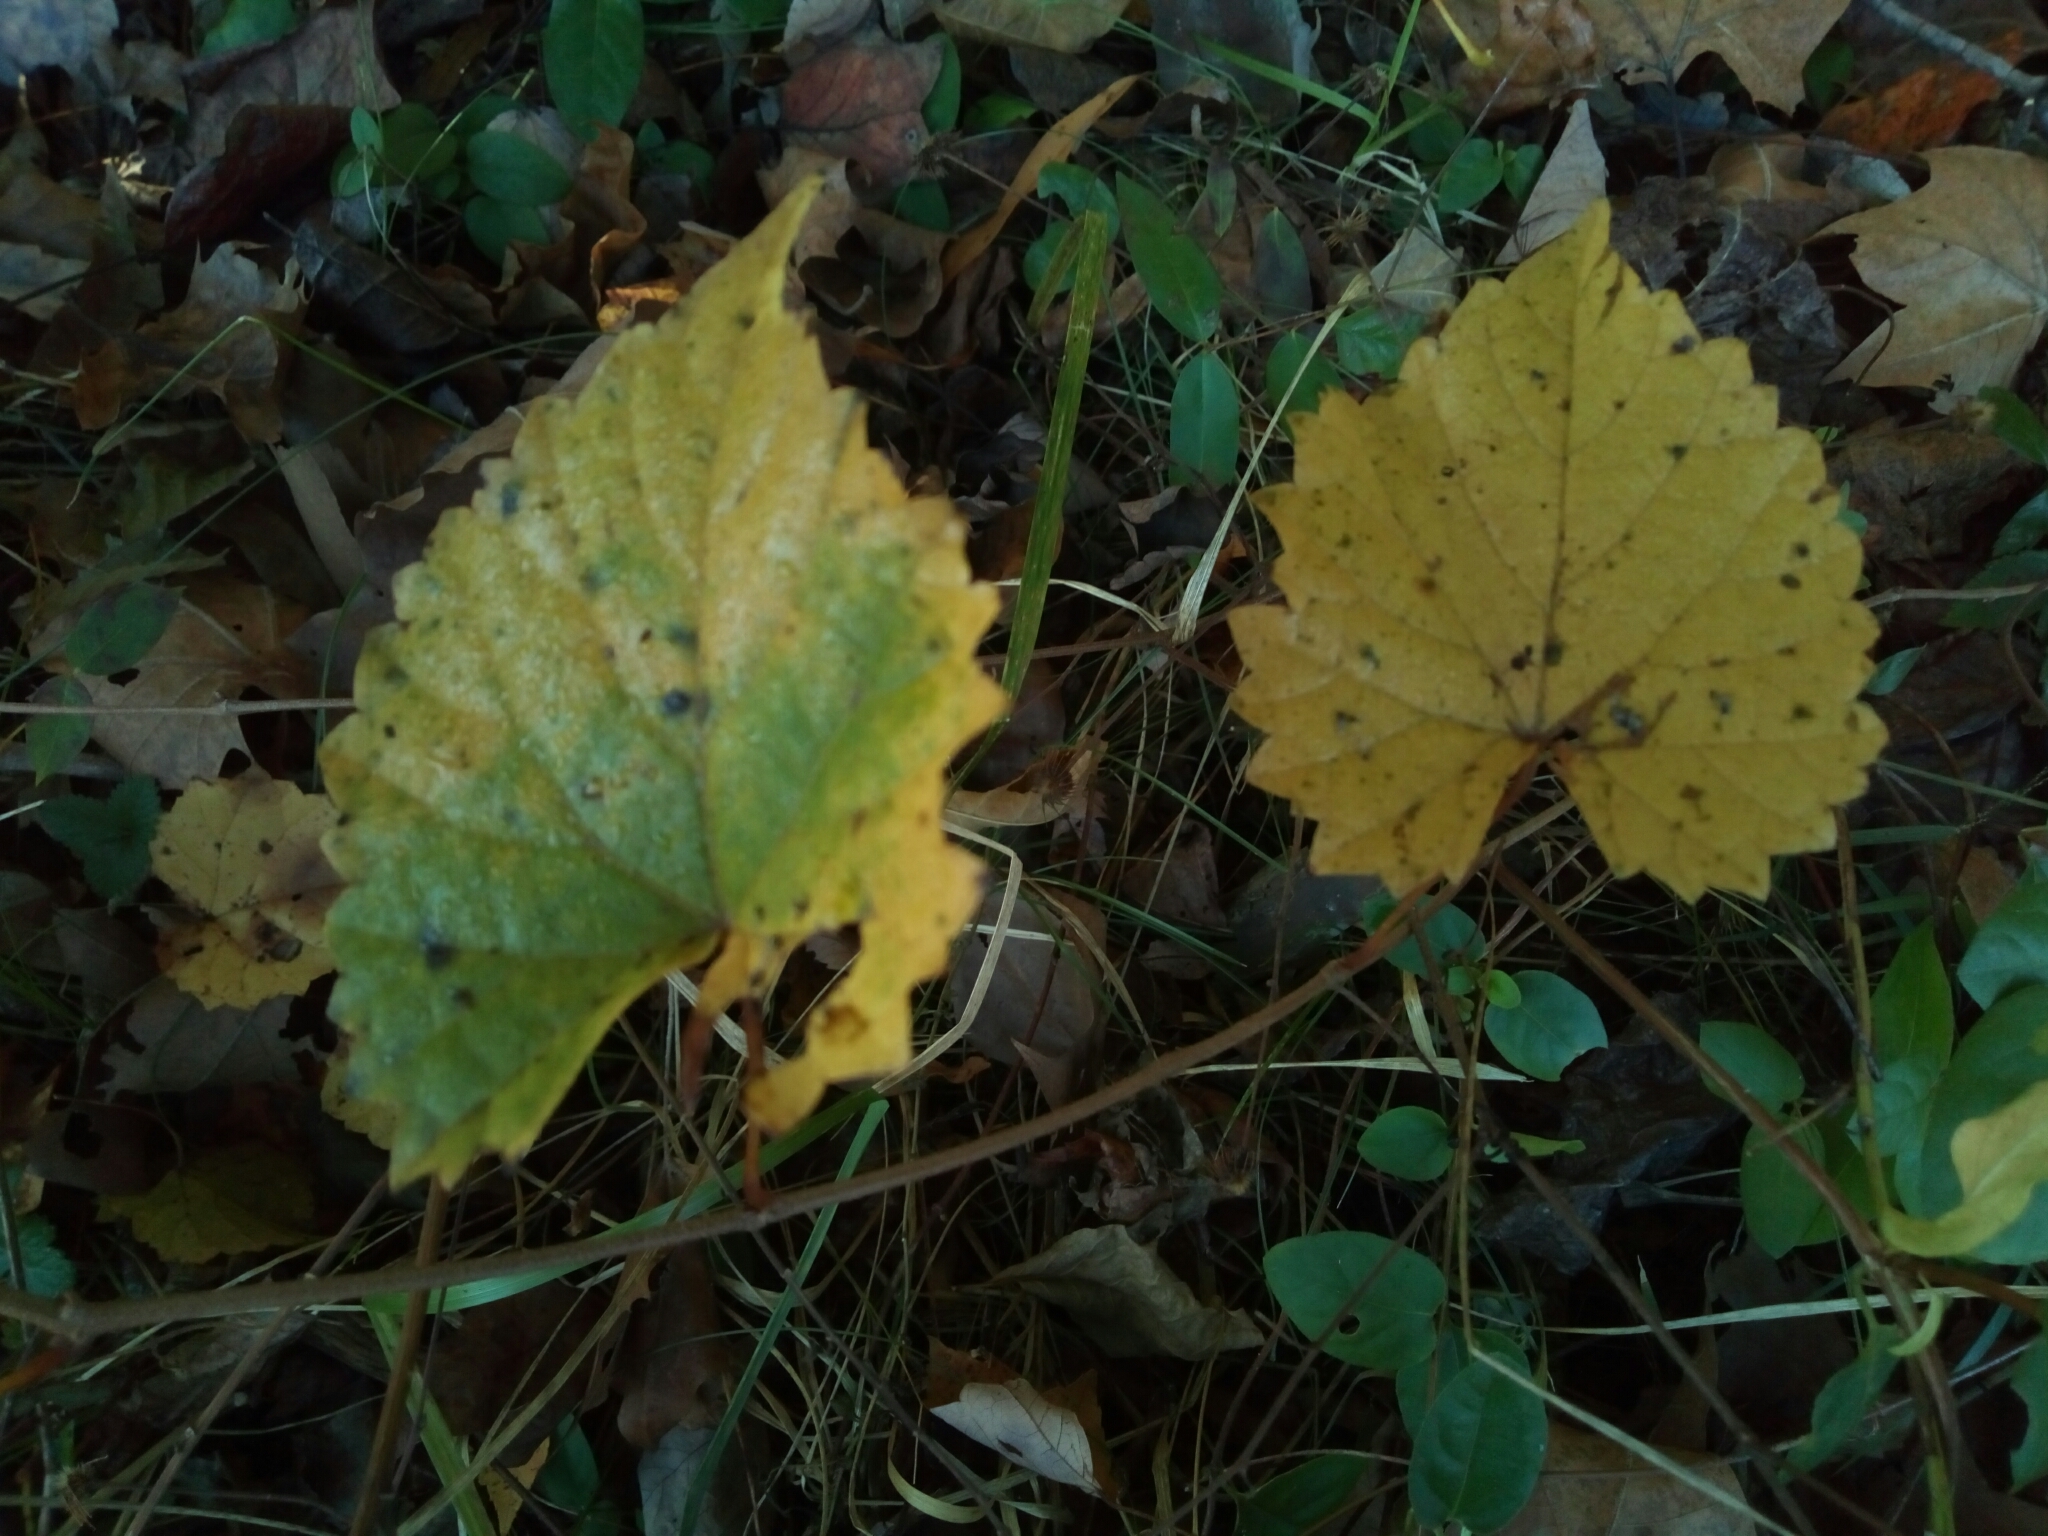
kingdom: Plantae
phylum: Tracheophyta
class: Magnoliopsida
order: Vitales
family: Vitaceae
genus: Vitis
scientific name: Vitis rotundifolia
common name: Muscadine grape
